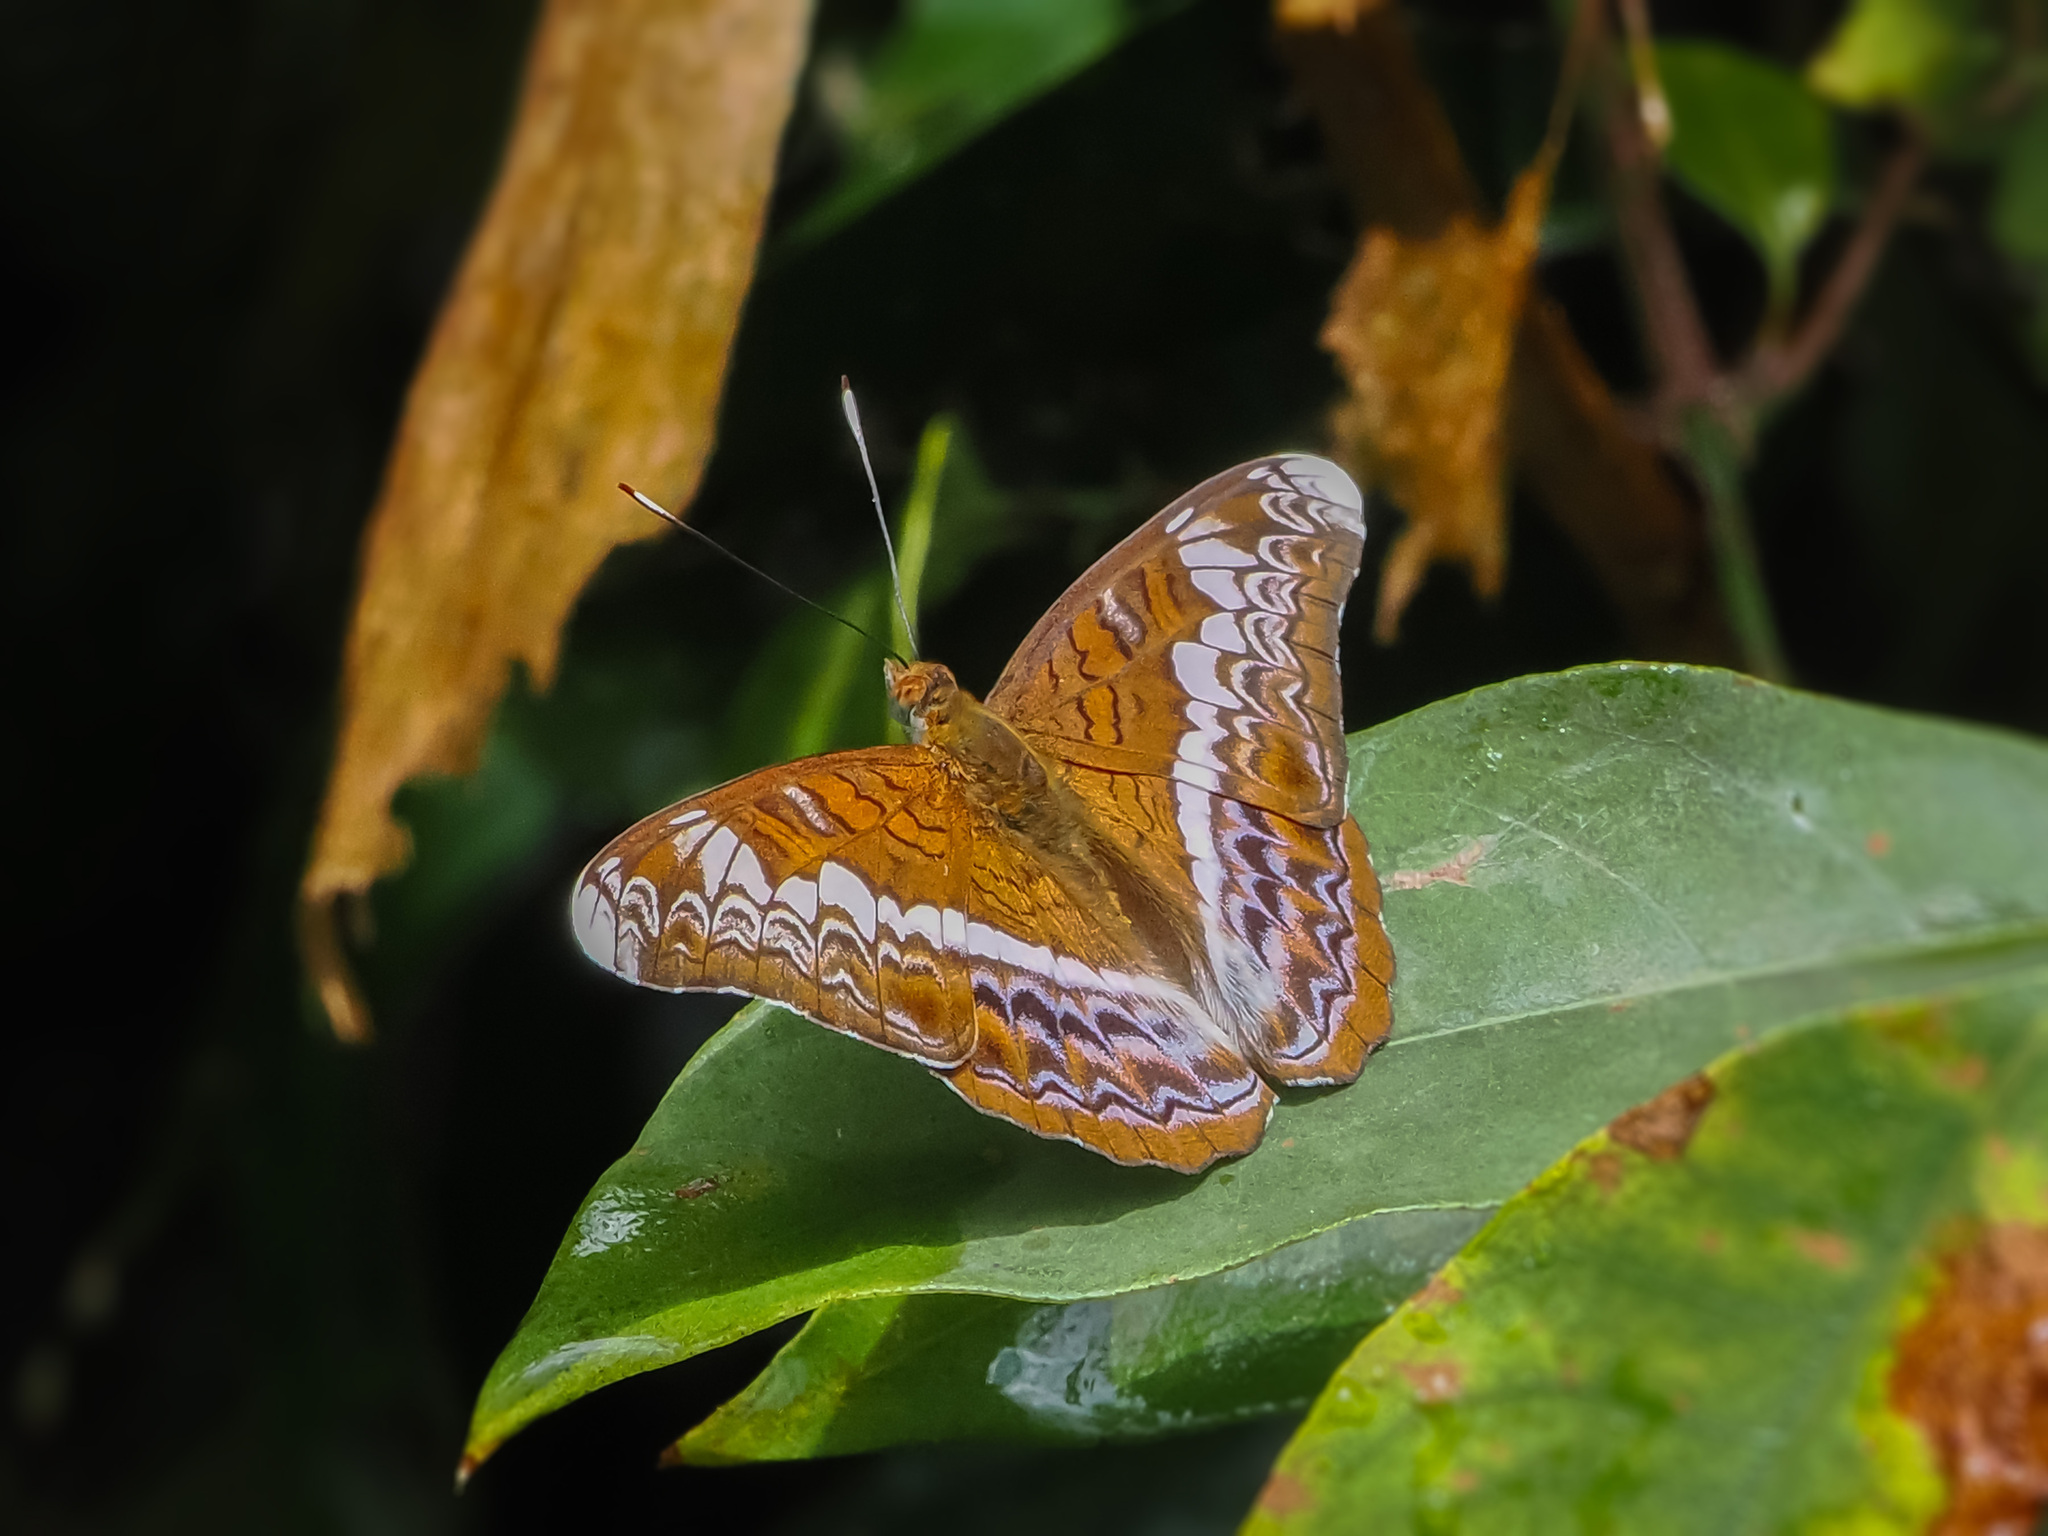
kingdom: Animalia
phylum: Arthropoda
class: Insecta
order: Lepidoptera
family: Nymphalidae
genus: Lebadea
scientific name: Lebadea martha
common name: Knight
